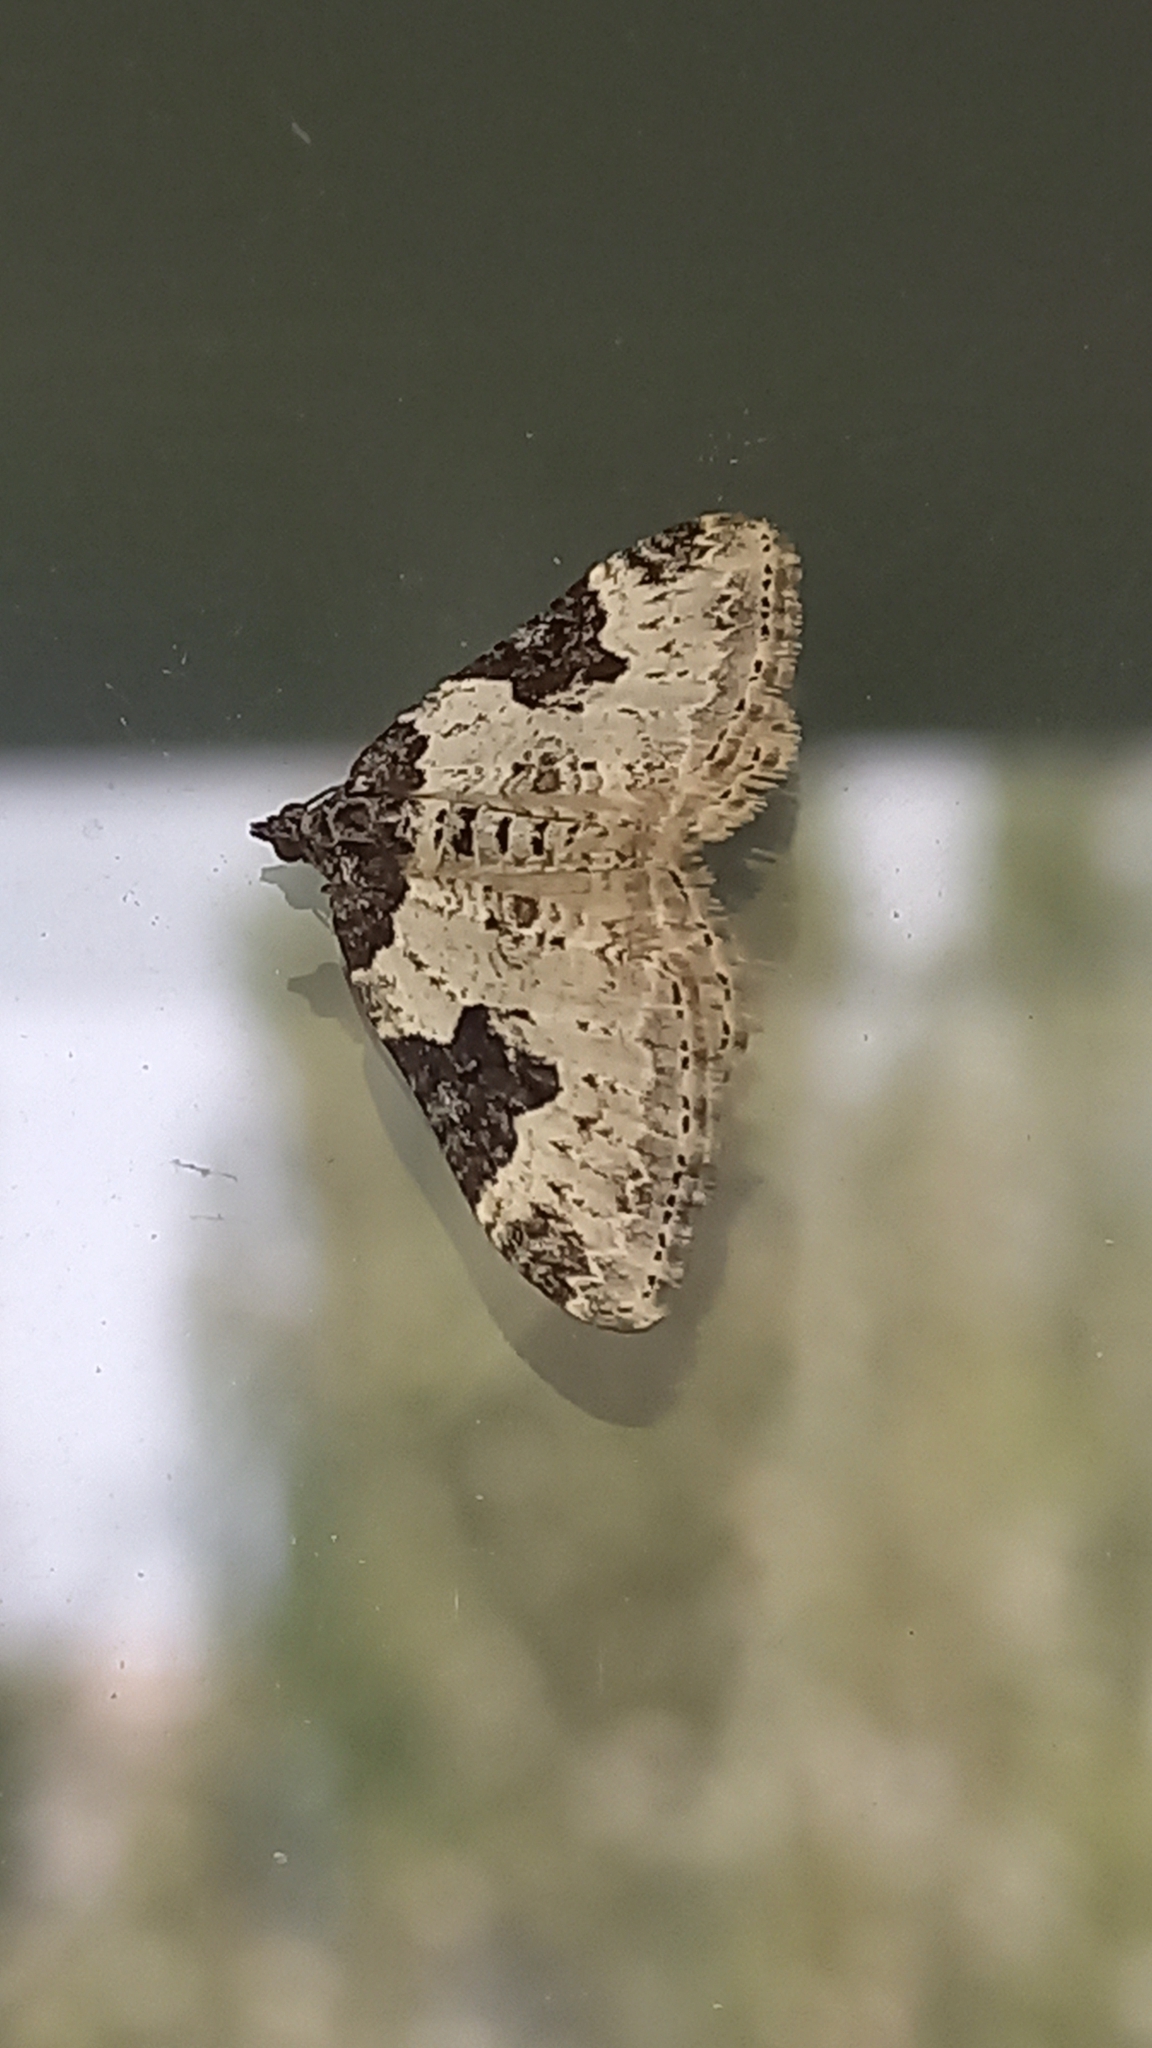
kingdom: Animalia
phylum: Arthropoda
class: Insecta
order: Lepidoptera
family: Geometridae
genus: Xanthorhoe
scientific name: Xanthorhoe fluctuata
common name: Garden carpet
